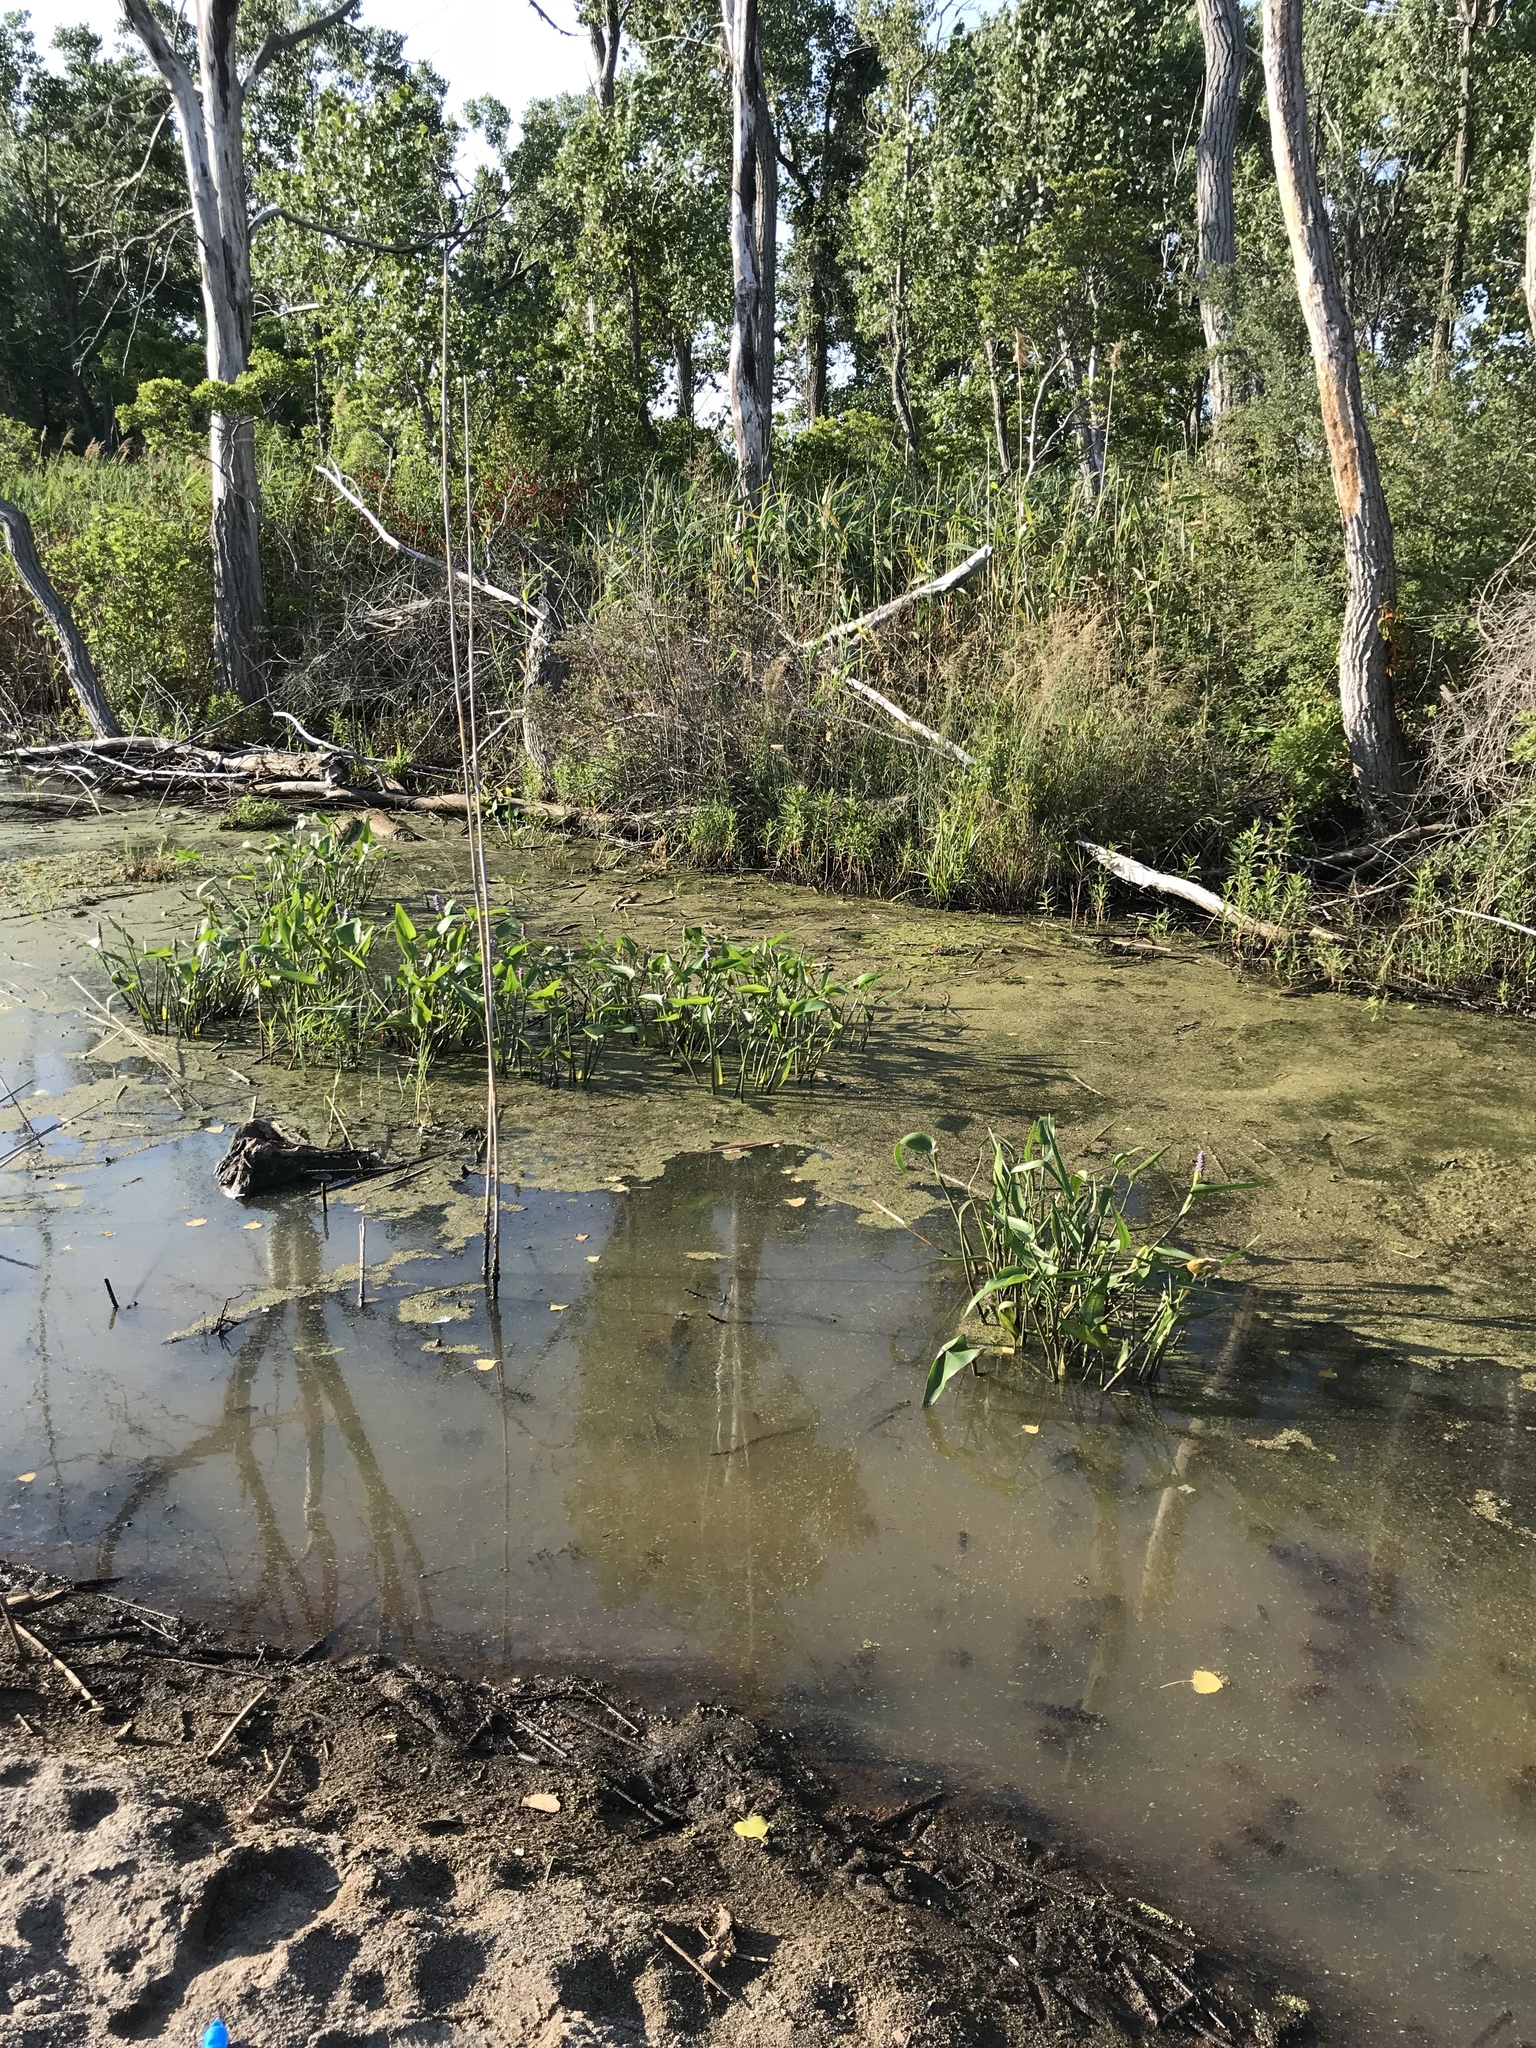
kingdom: Plantae
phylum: Tracheophyta
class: Liliopsida
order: Commelinales
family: Pontederiaceae
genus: Pontederia
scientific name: Pontederia cordata
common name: Pickerelweed
